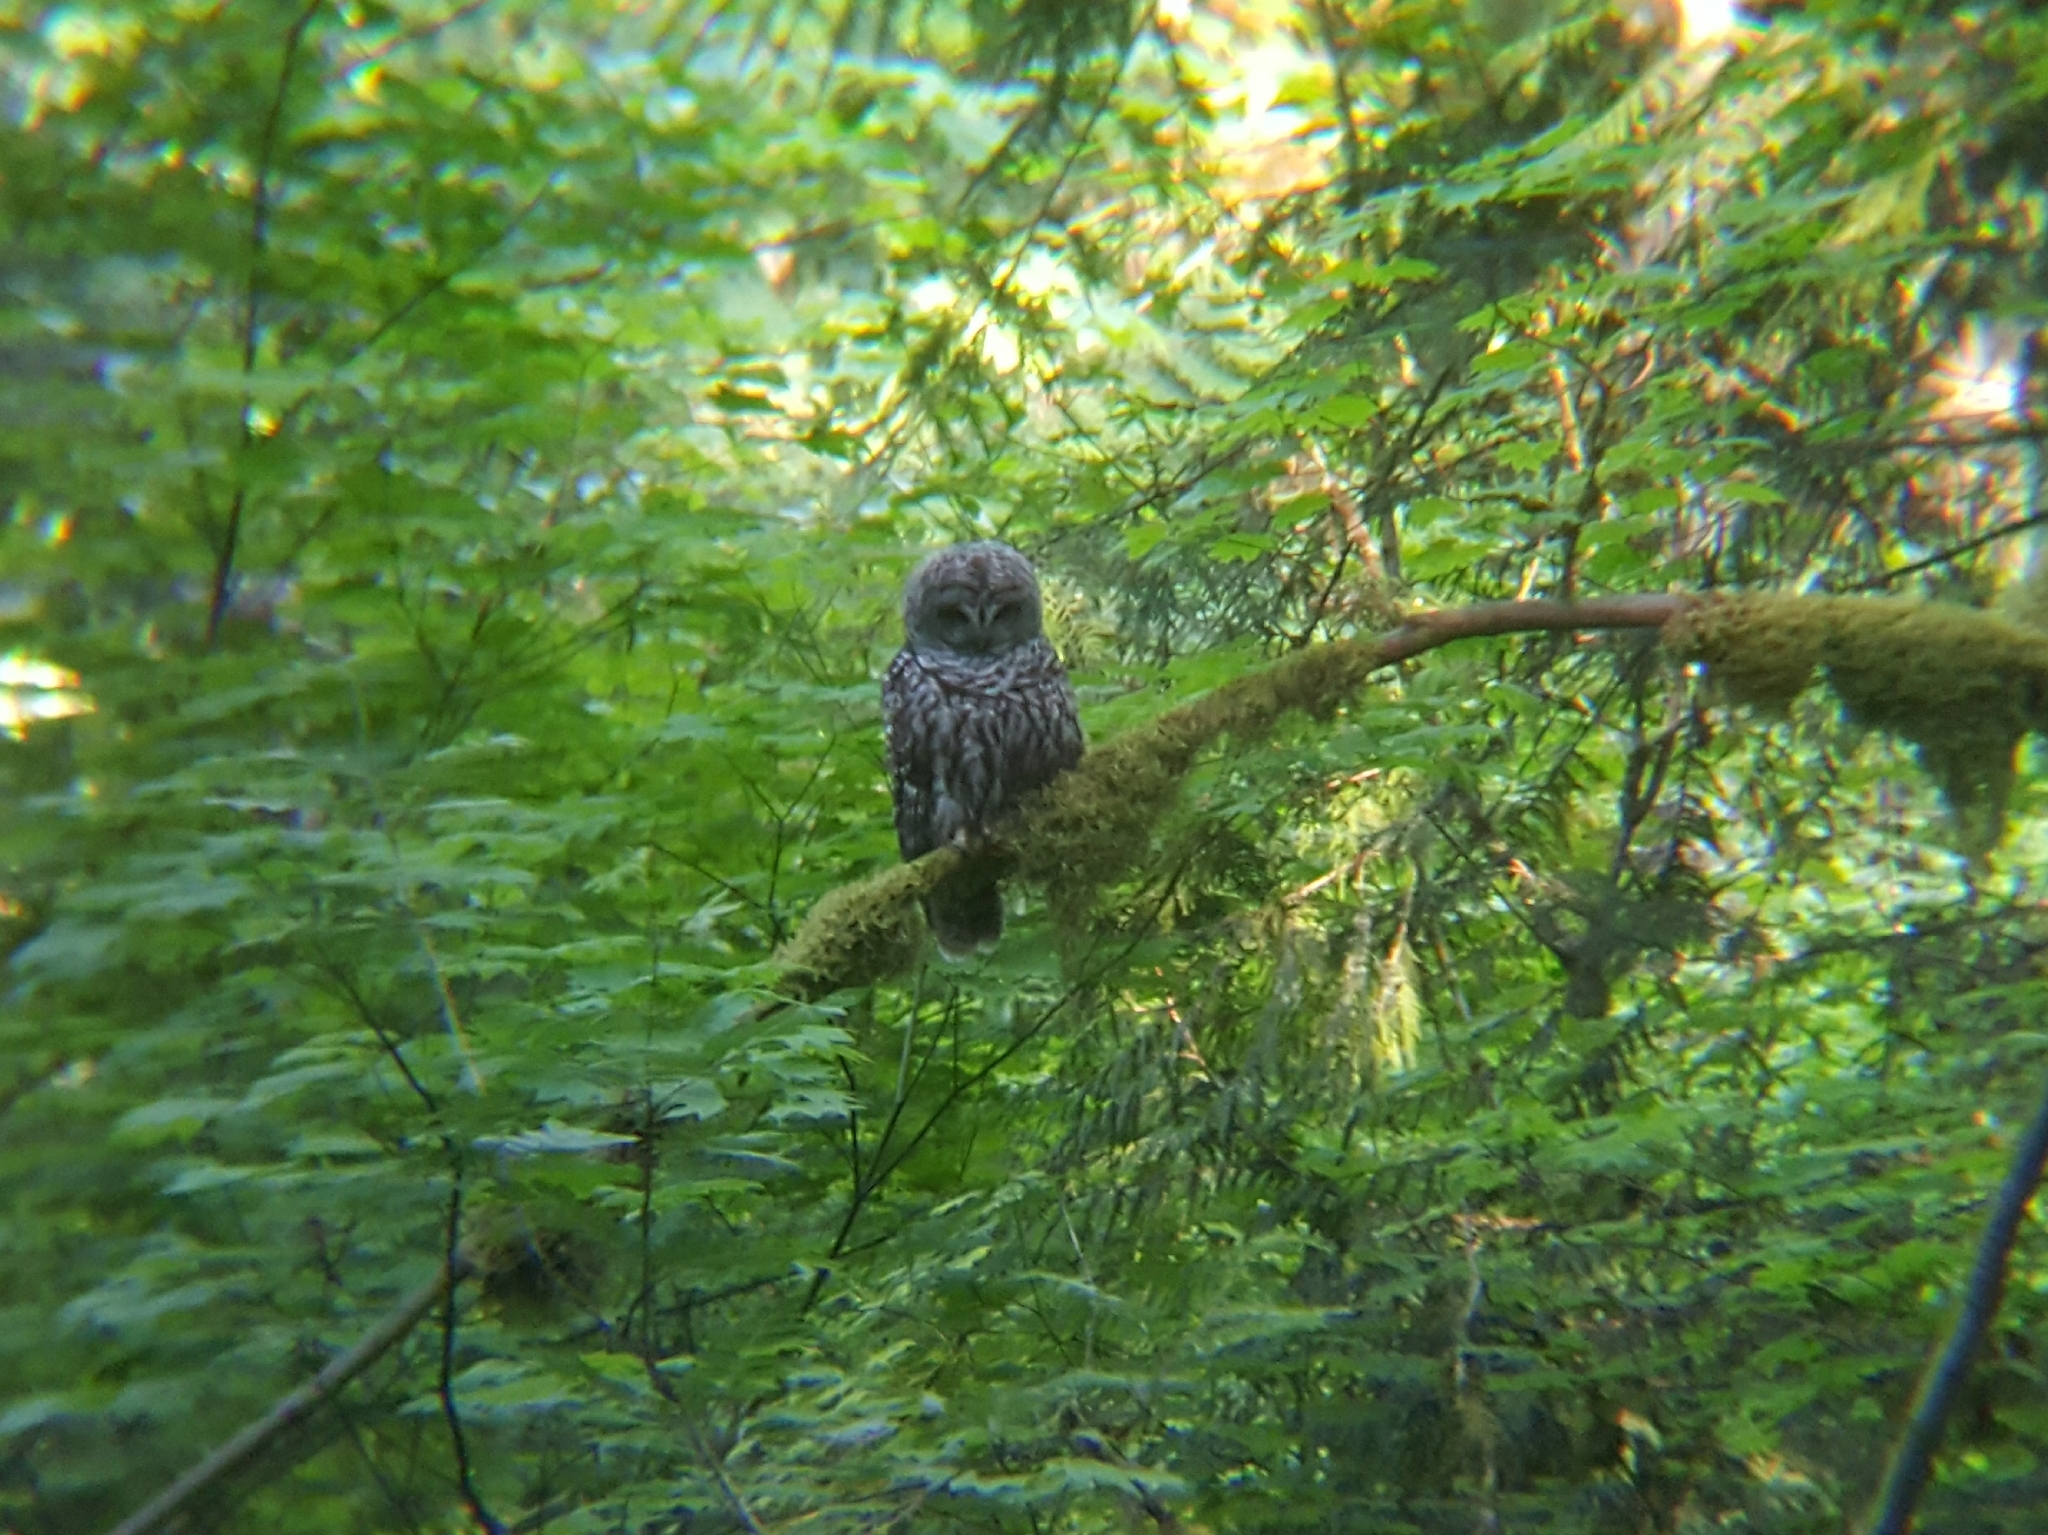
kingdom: Animalia
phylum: Chordata
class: Aves
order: Strigiformes
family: Strigidae
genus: Strix
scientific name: Strix varia
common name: Barred owl
